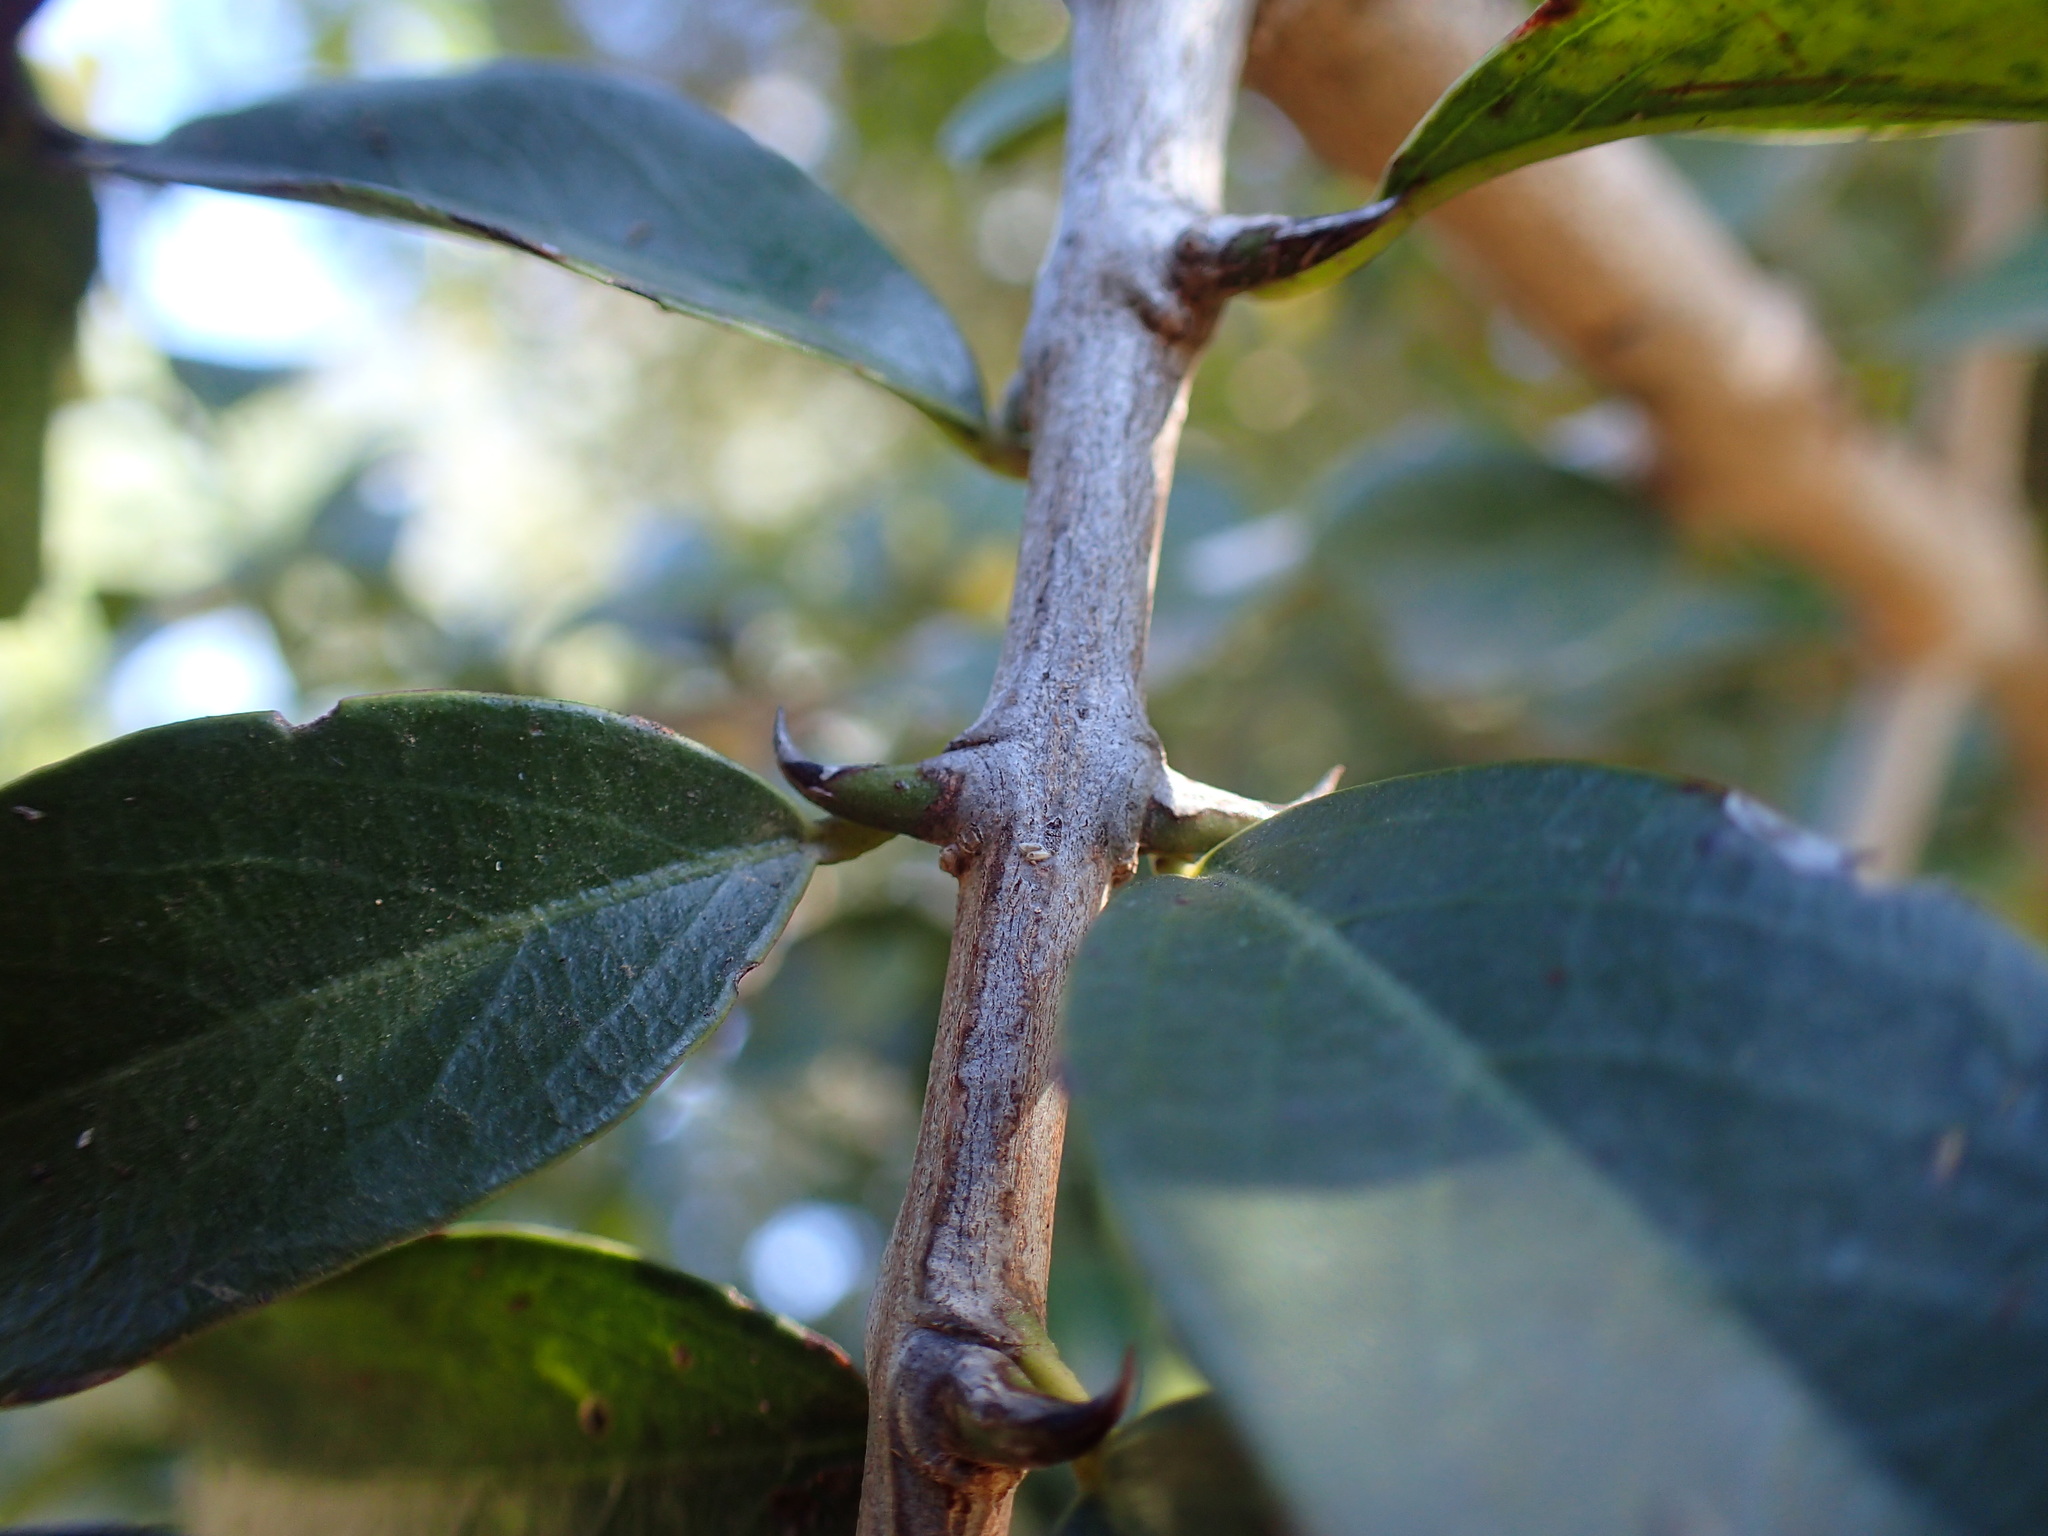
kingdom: Plantae
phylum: Tracheophyta
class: Magnoliopsida
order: Rosales
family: Rhamnaceae
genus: Scutia
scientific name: Scutia myrtina
